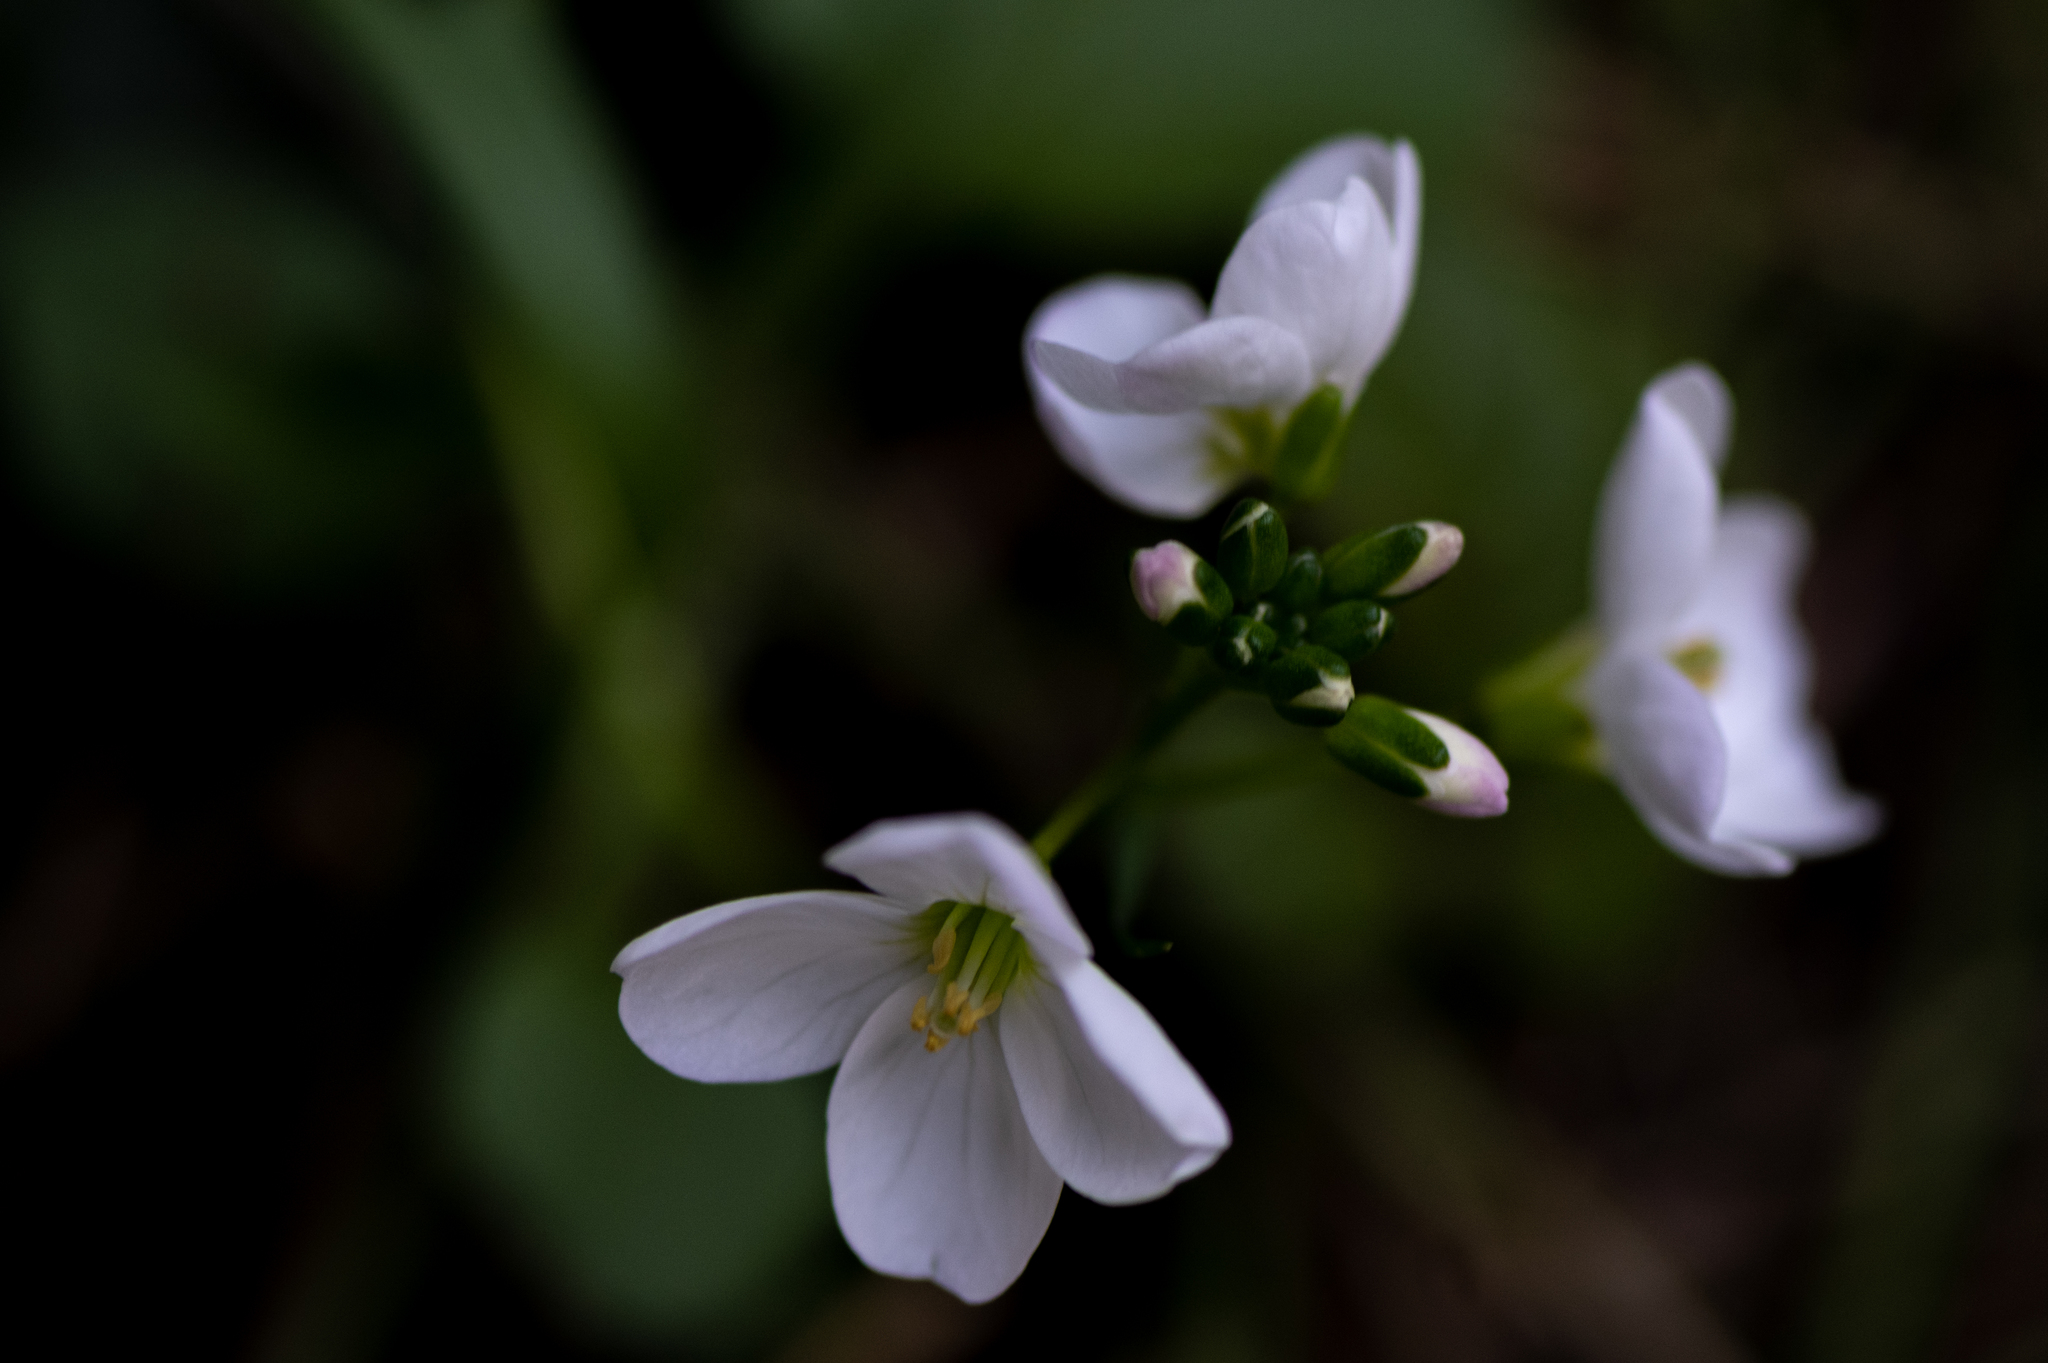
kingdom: Plantae
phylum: Tracheophyta
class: Magnoliopsida
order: Brassicales
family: Brassicaceae
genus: Cardamine
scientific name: Cardamine californica
